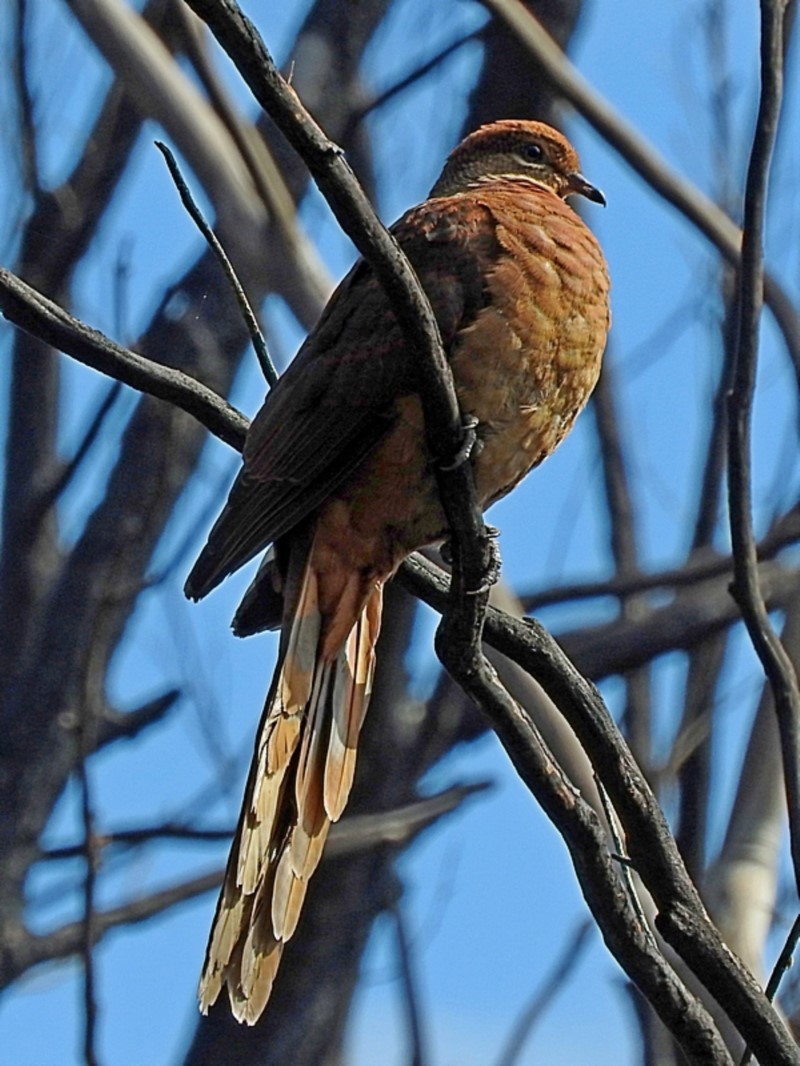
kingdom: Animalia
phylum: Chordata
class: Aves
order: Columbiformes
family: Columbidae
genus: Macropygia
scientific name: Macropygia phasianella
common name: Brown cuckoo-dove
